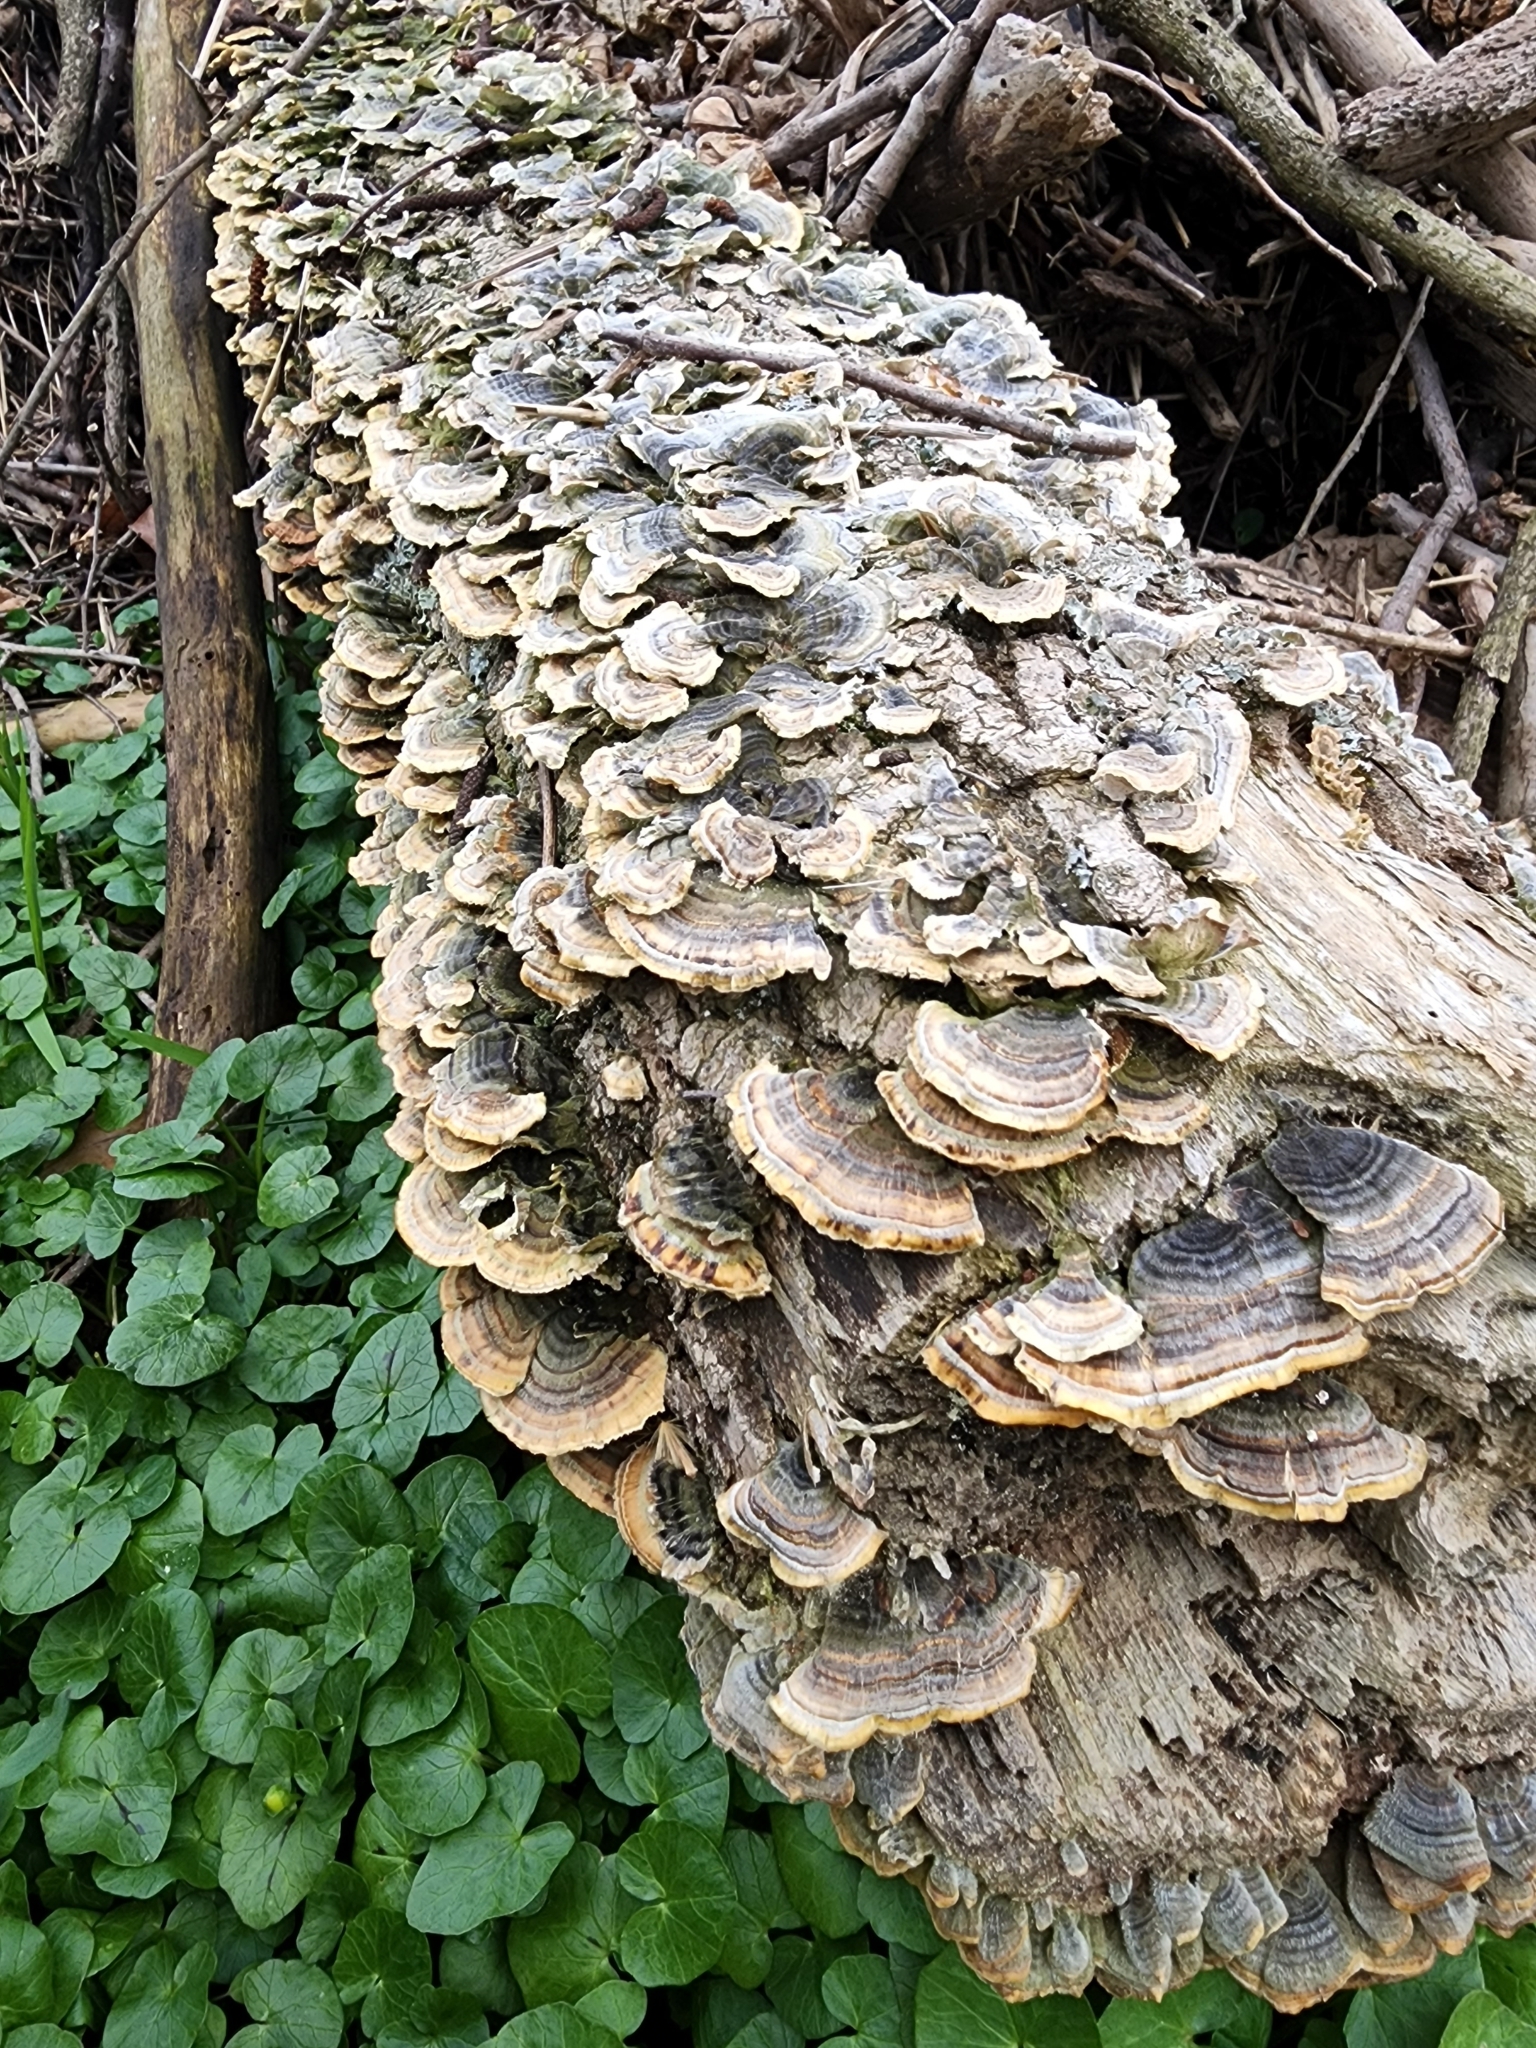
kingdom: Fungi
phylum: Basidiomycota
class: Agaricomycetes
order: Polyporales
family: Polyporaceae
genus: Trametes
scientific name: Trametes versicolor
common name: Turkeytail
